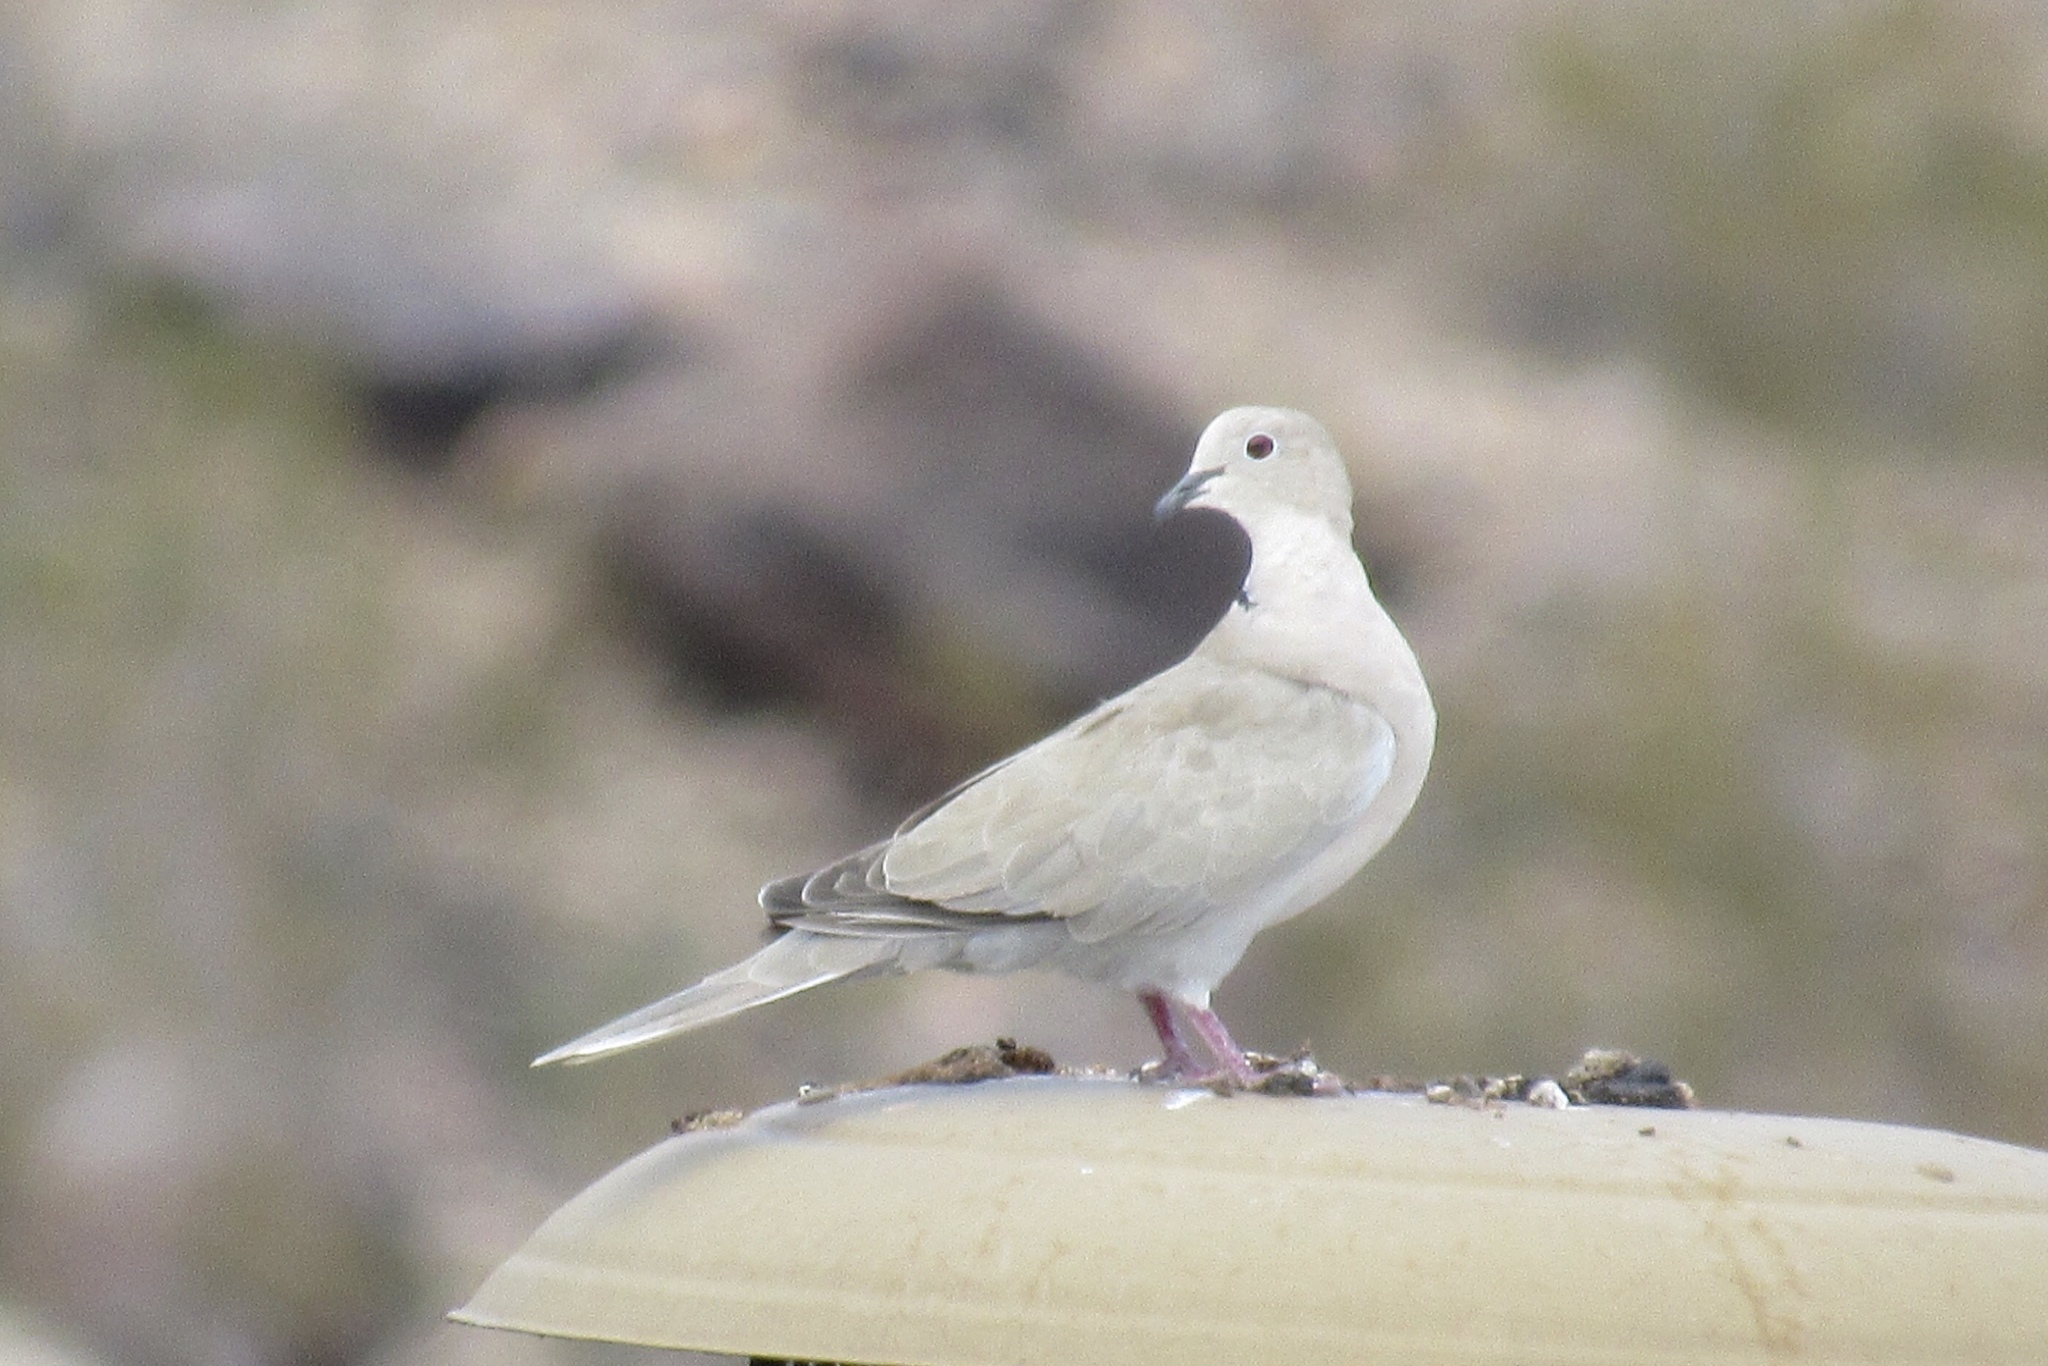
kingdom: Animalia
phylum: Chordata
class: Aves
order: Columbiformes
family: Columbidae
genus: Streptopelia
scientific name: Streptopelia decaocto
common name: Eurasian collared dove
